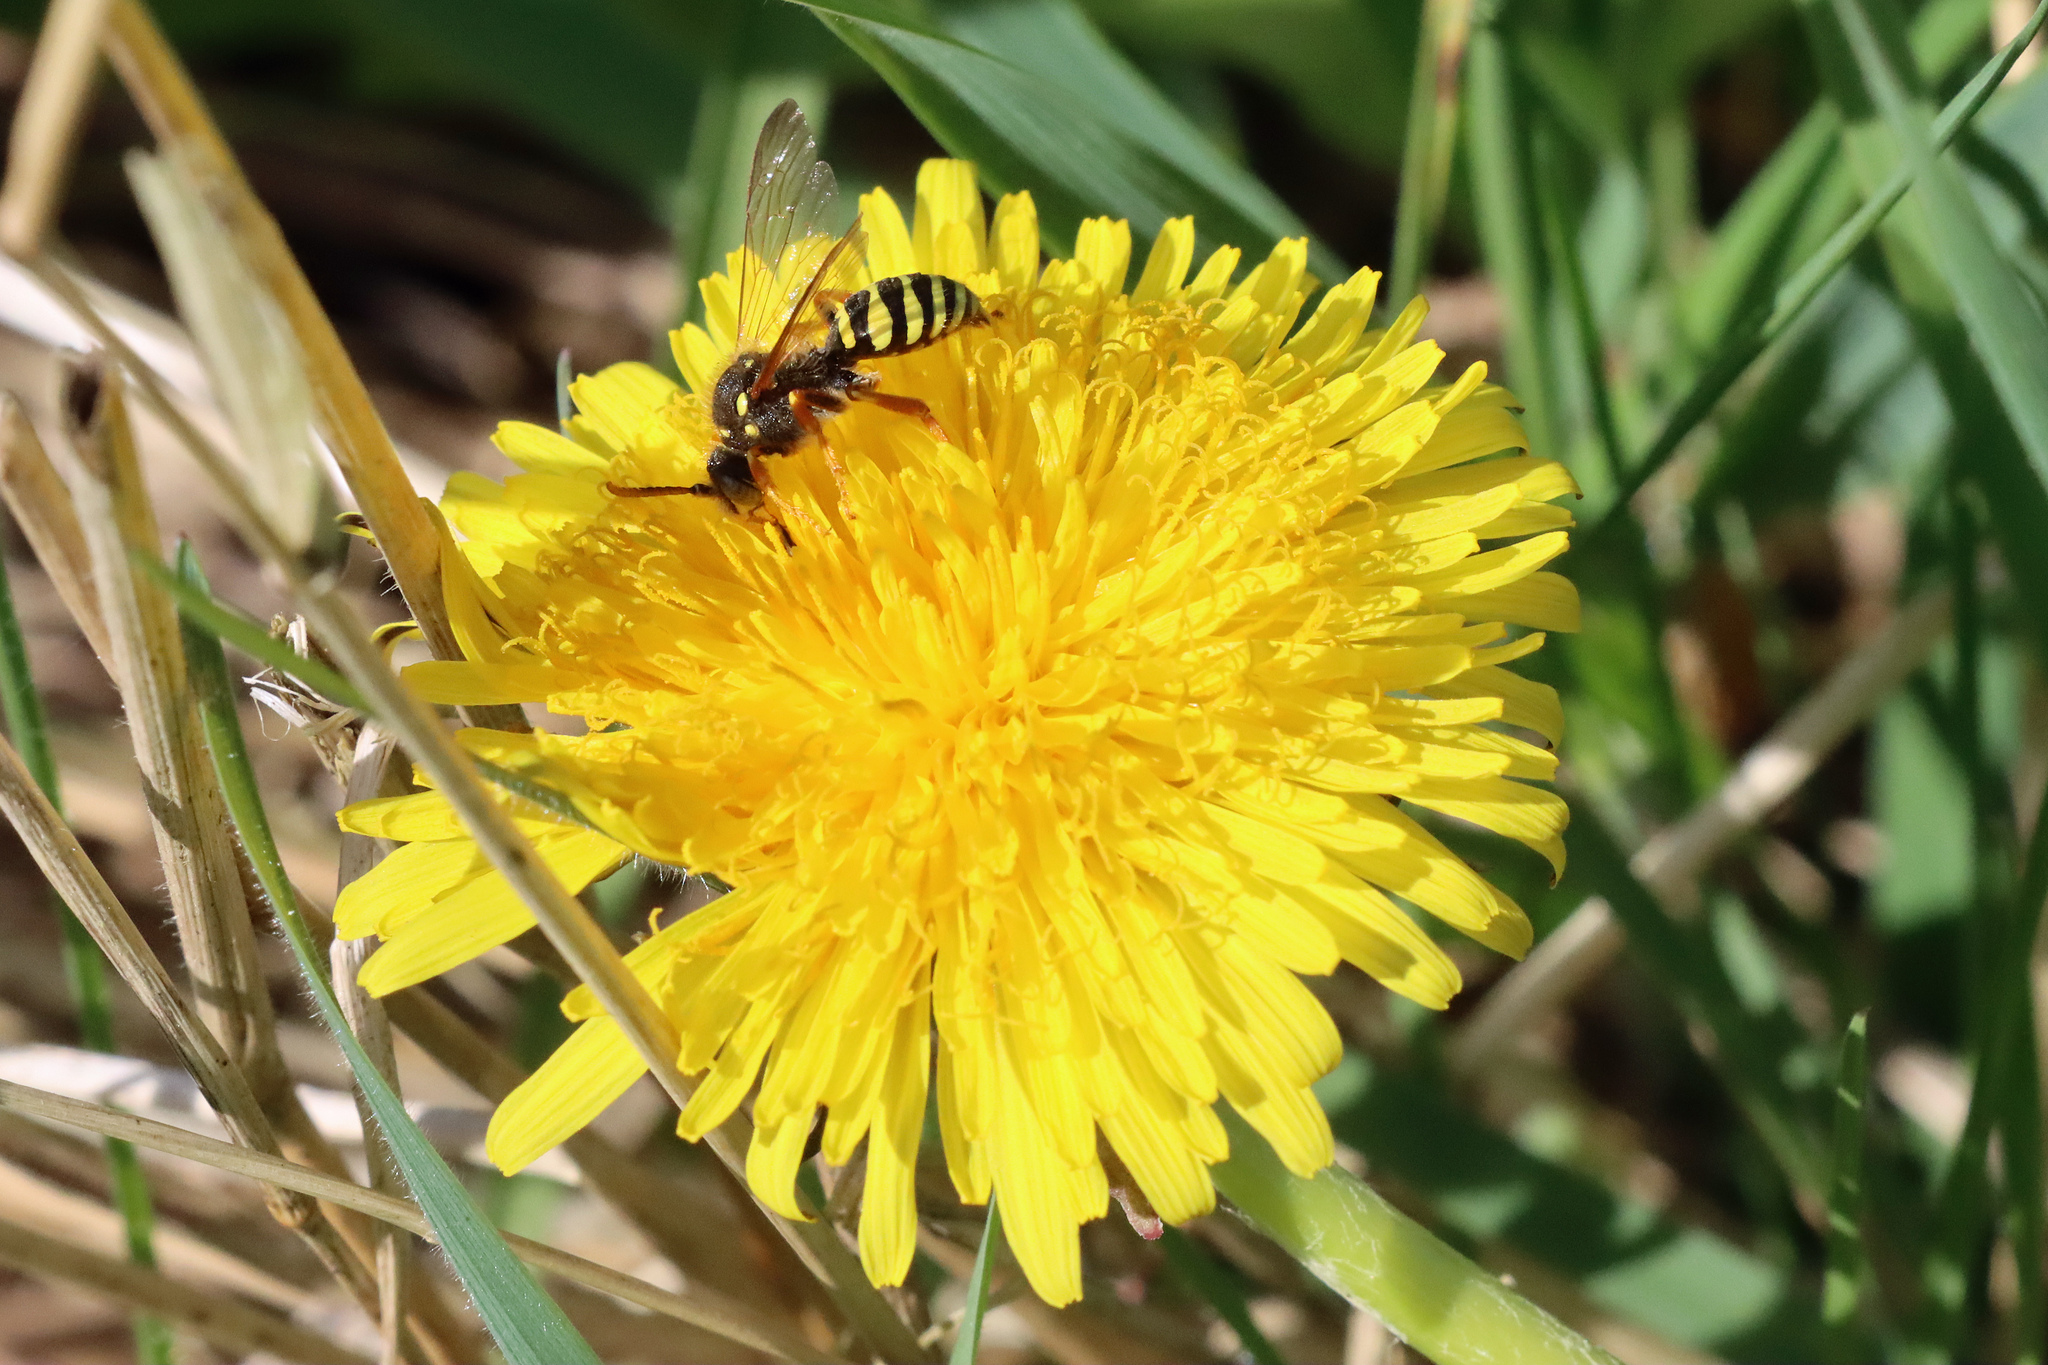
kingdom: Animalia
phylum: Arthropoda
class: Insecta
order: Hymenoptera
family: Apidae
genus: Nomada
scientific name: Nomada goodeniana
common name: Gooden's nomad bee
